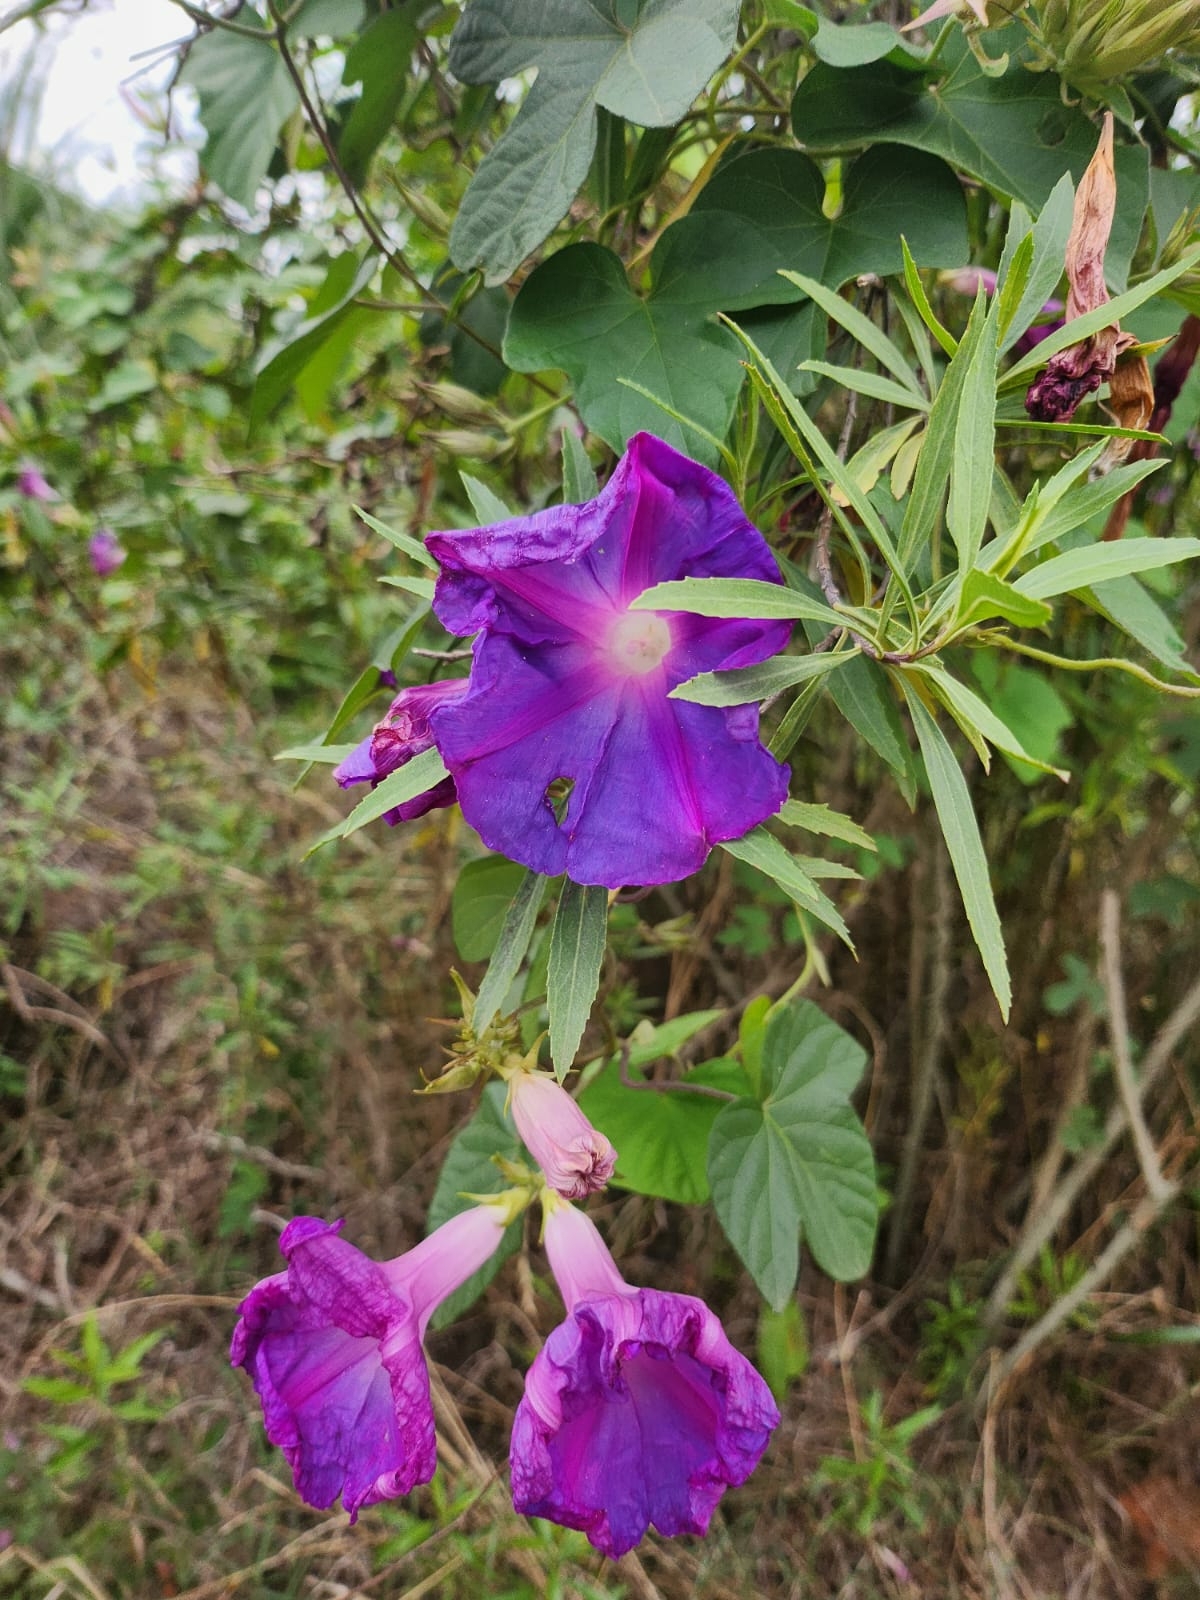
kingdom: Plantae
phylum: Tracheophyta
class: Magnoliopsida
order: Solanales
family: Convolvulaceae
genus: Ipomoea
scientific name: Ipomoea indica
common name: Blue dawnflower
